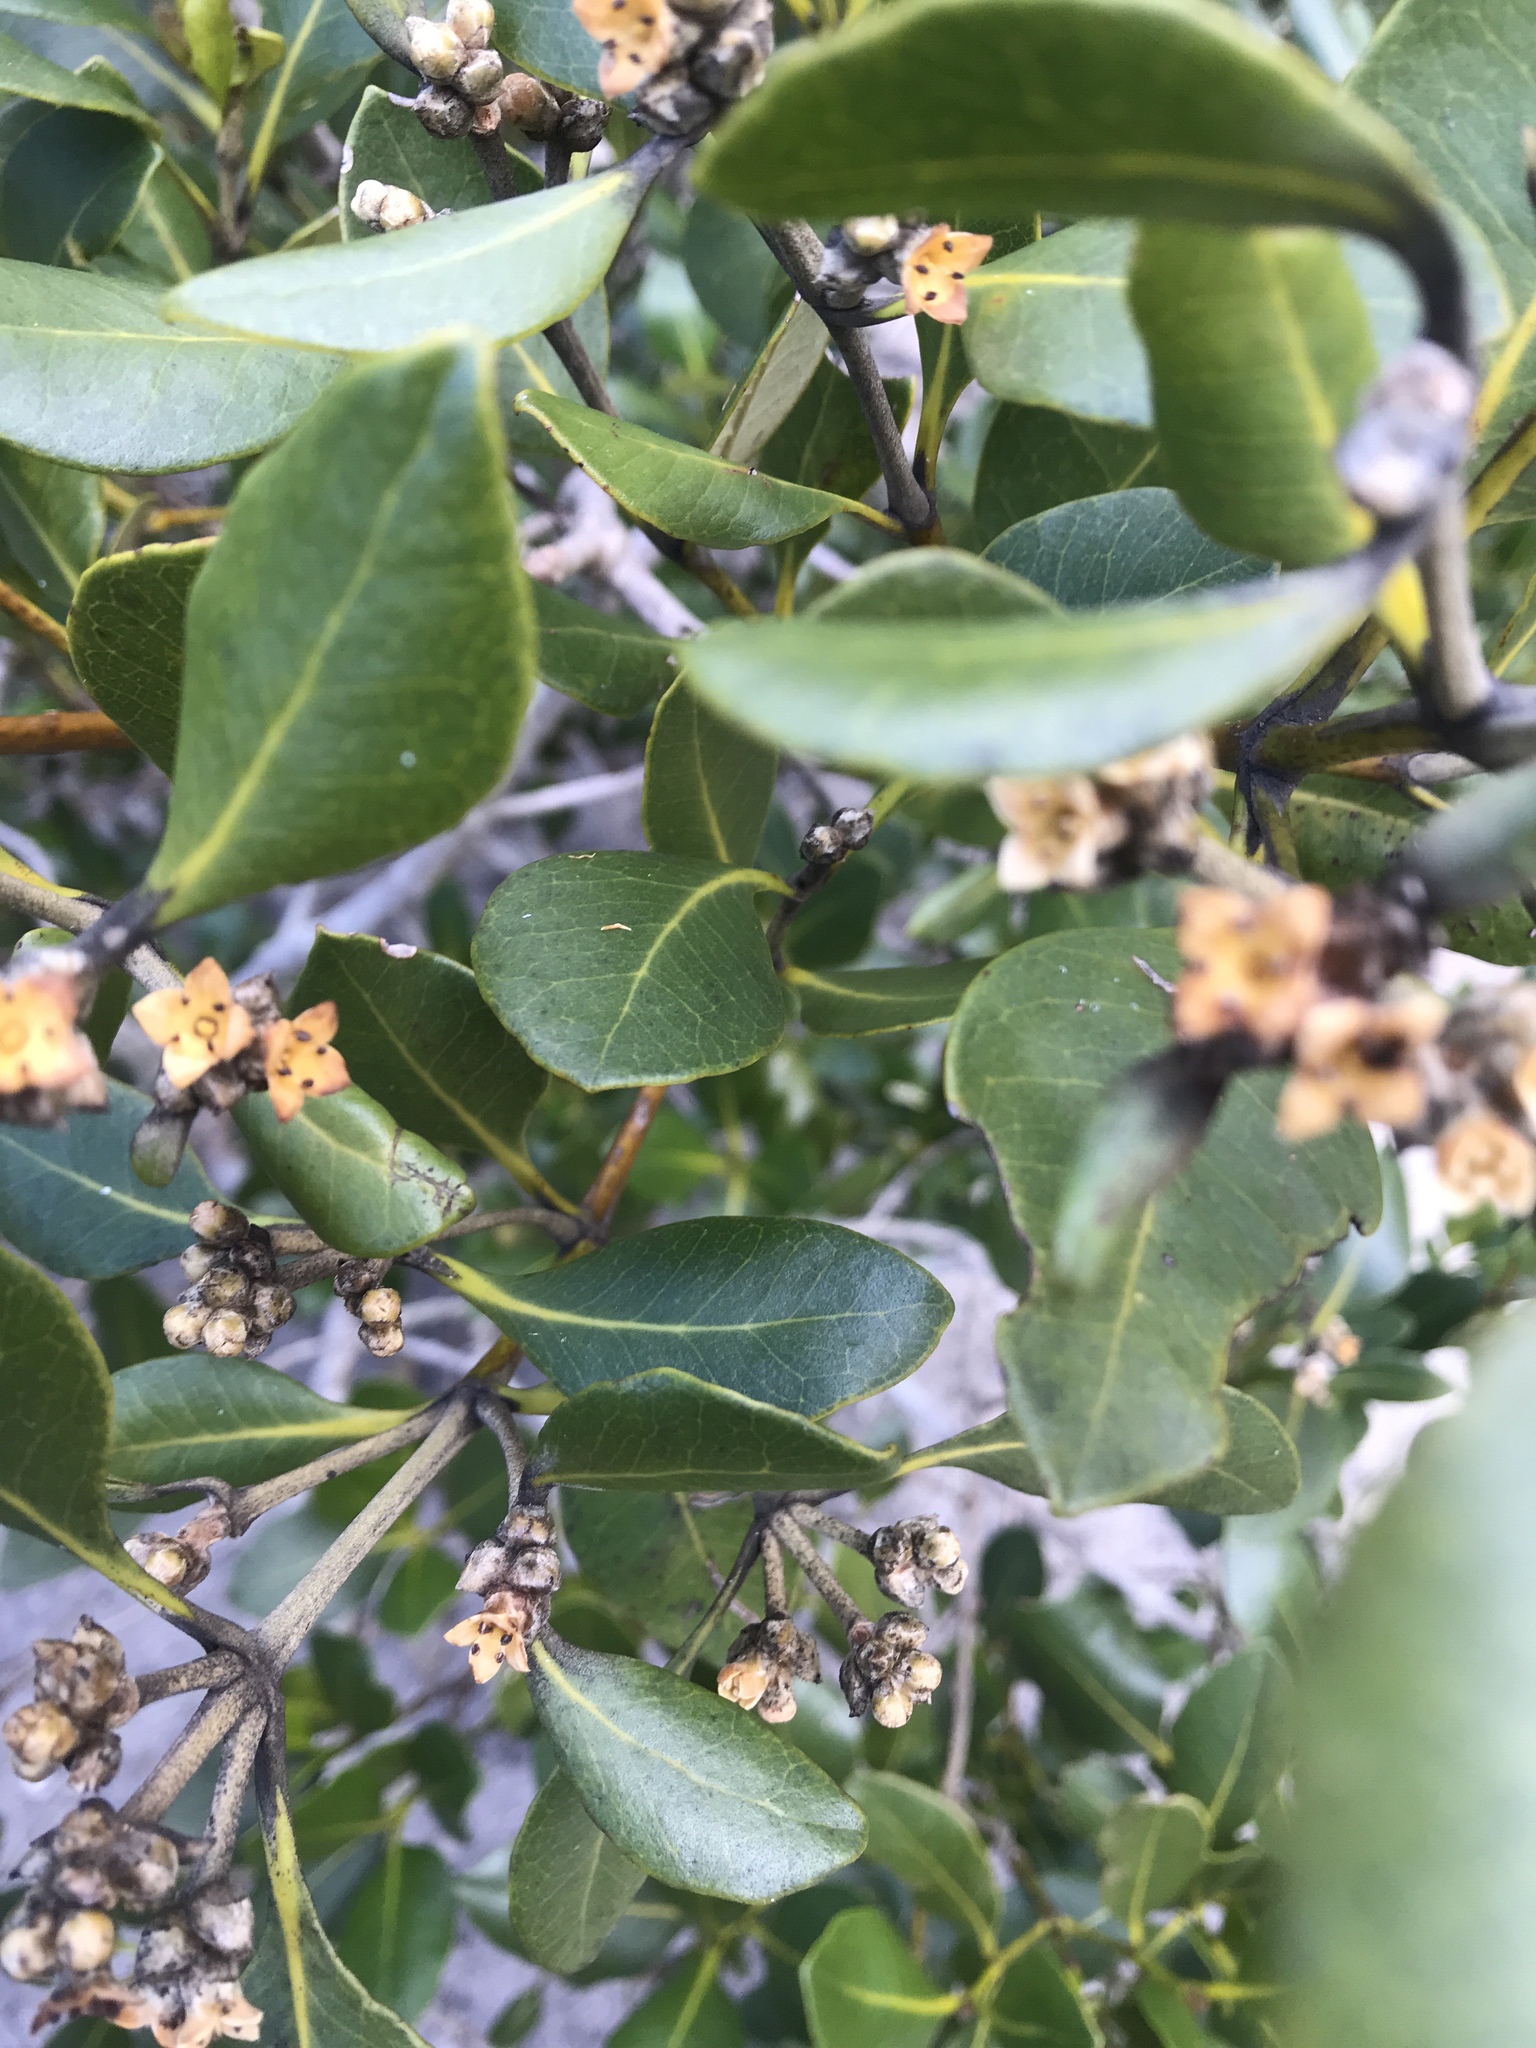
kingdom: Plantae
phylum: Tracheophyta
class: Magnoliopsida
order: Lamiales
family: Acanthaceae
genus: Avicennia
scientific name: Avicennia marina
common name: Gray mangrove
